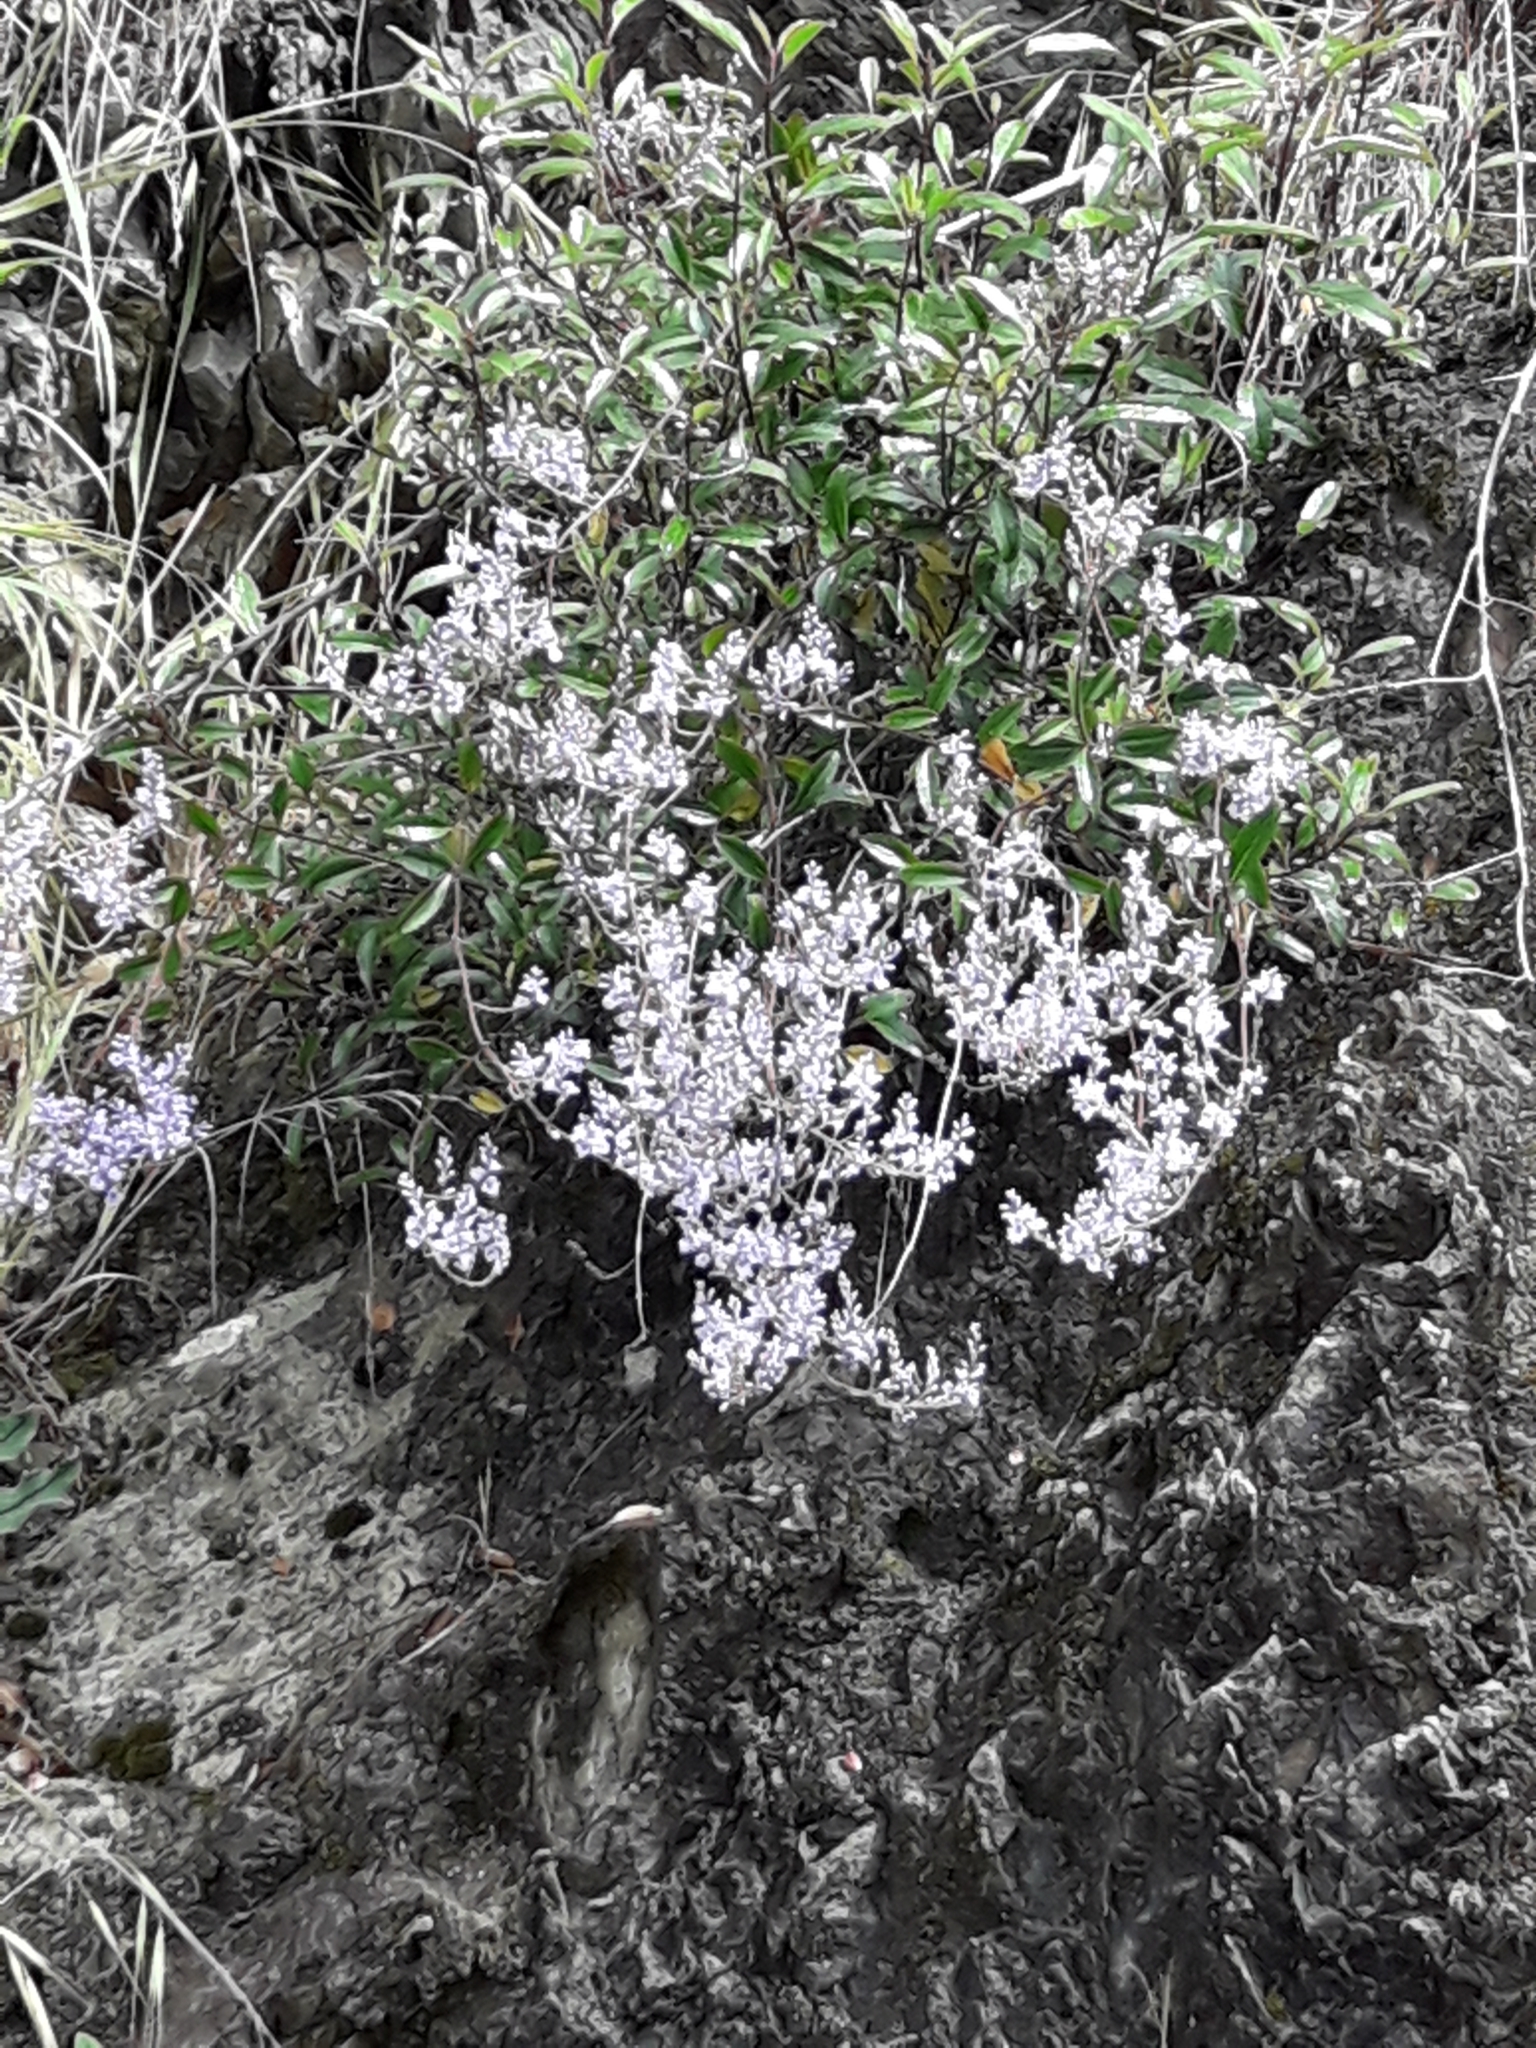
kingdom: Plantae
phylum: Tracheophyta
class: Magnoliopsida
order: Lamiales
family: Plantaginaceae
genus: Veronica
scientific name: Veronica hulkeana
